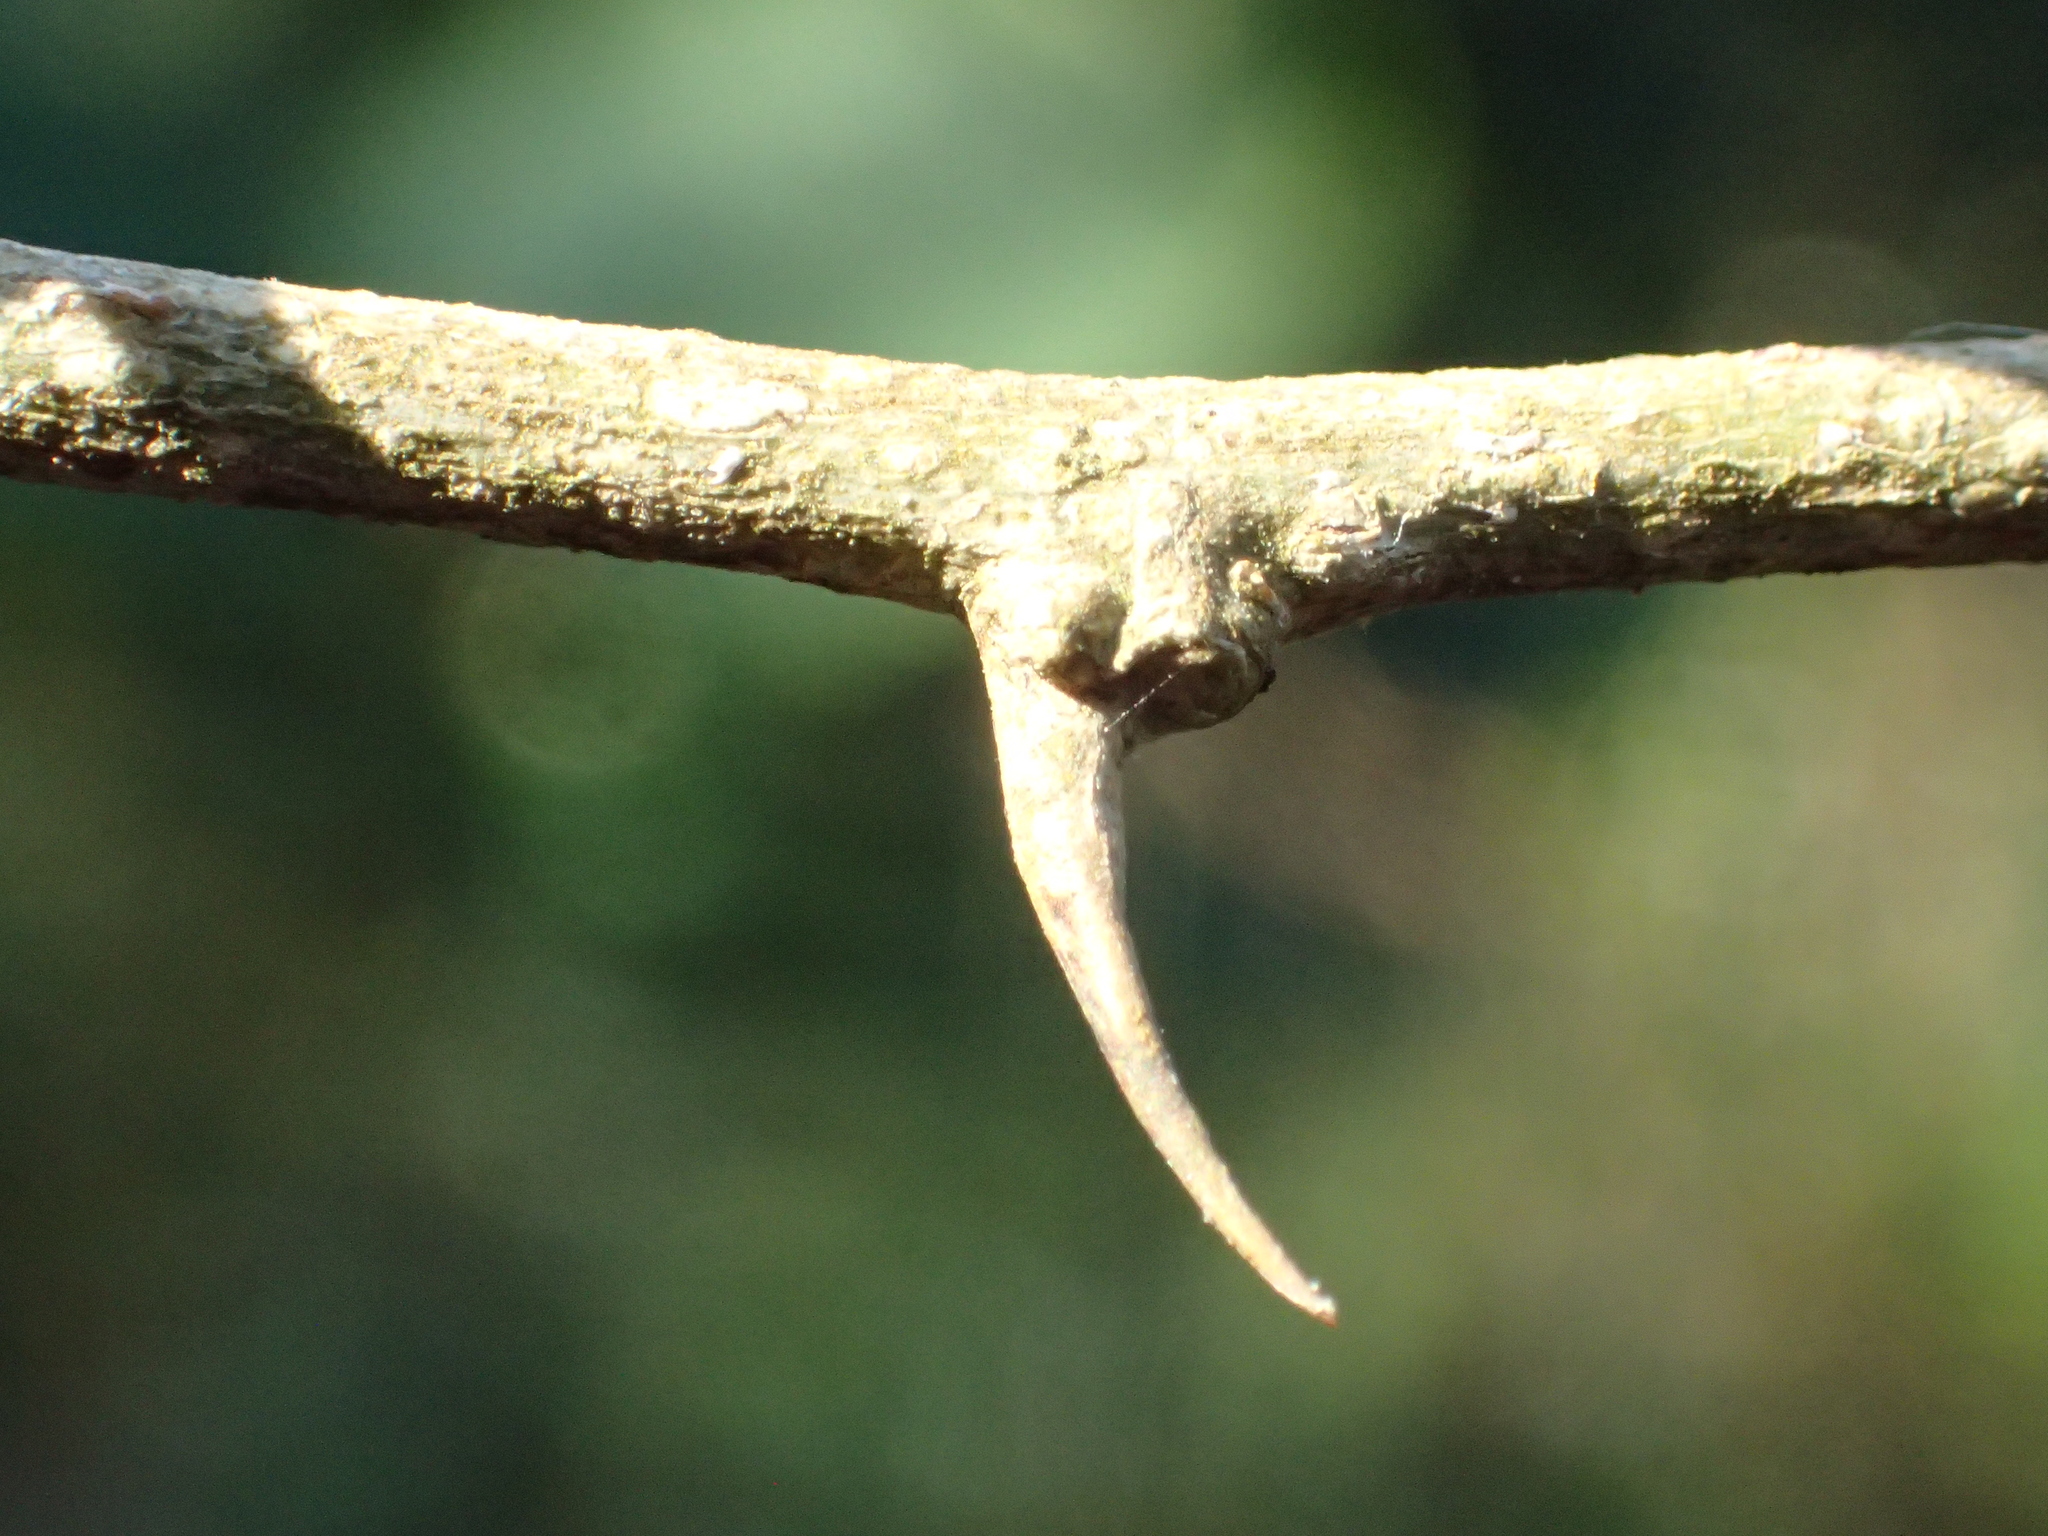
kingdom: Plantae
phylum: Tracheophyta
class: Magnoliopsida
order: Rosales
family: Moraceae
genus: Maclura
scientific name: Maclura cochinchinensis
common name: Cockspurthorn
